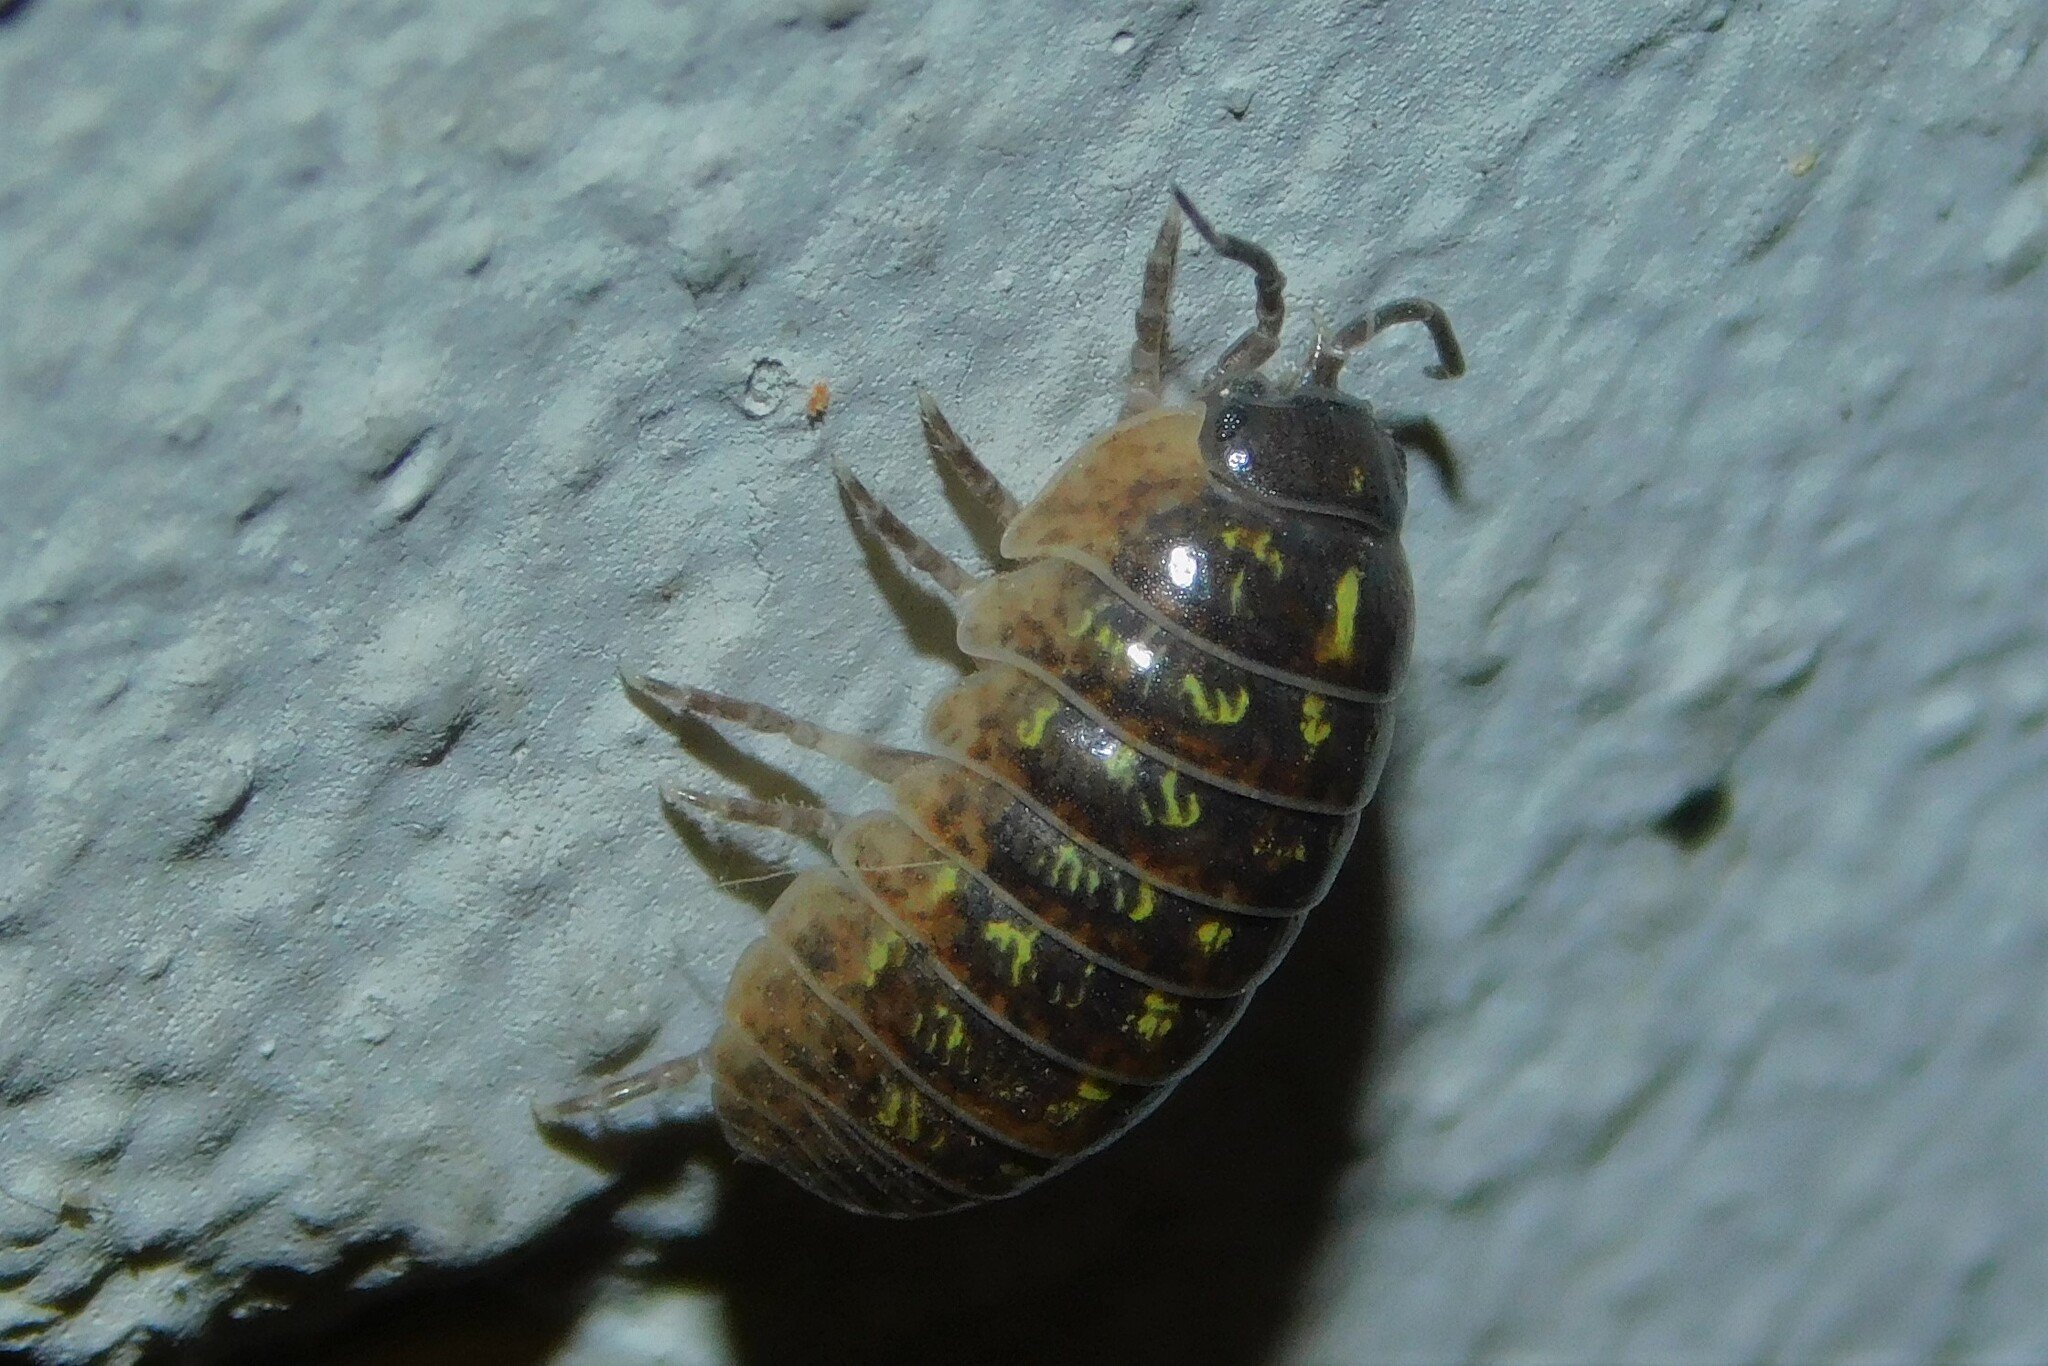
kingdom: Animalia
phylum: Arthropoda
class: Malacostraca
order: Isopoda
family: Armadillidiidae
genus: Armadillidium
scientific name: Armadillidium vulgare
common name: Common pill woodlouse
